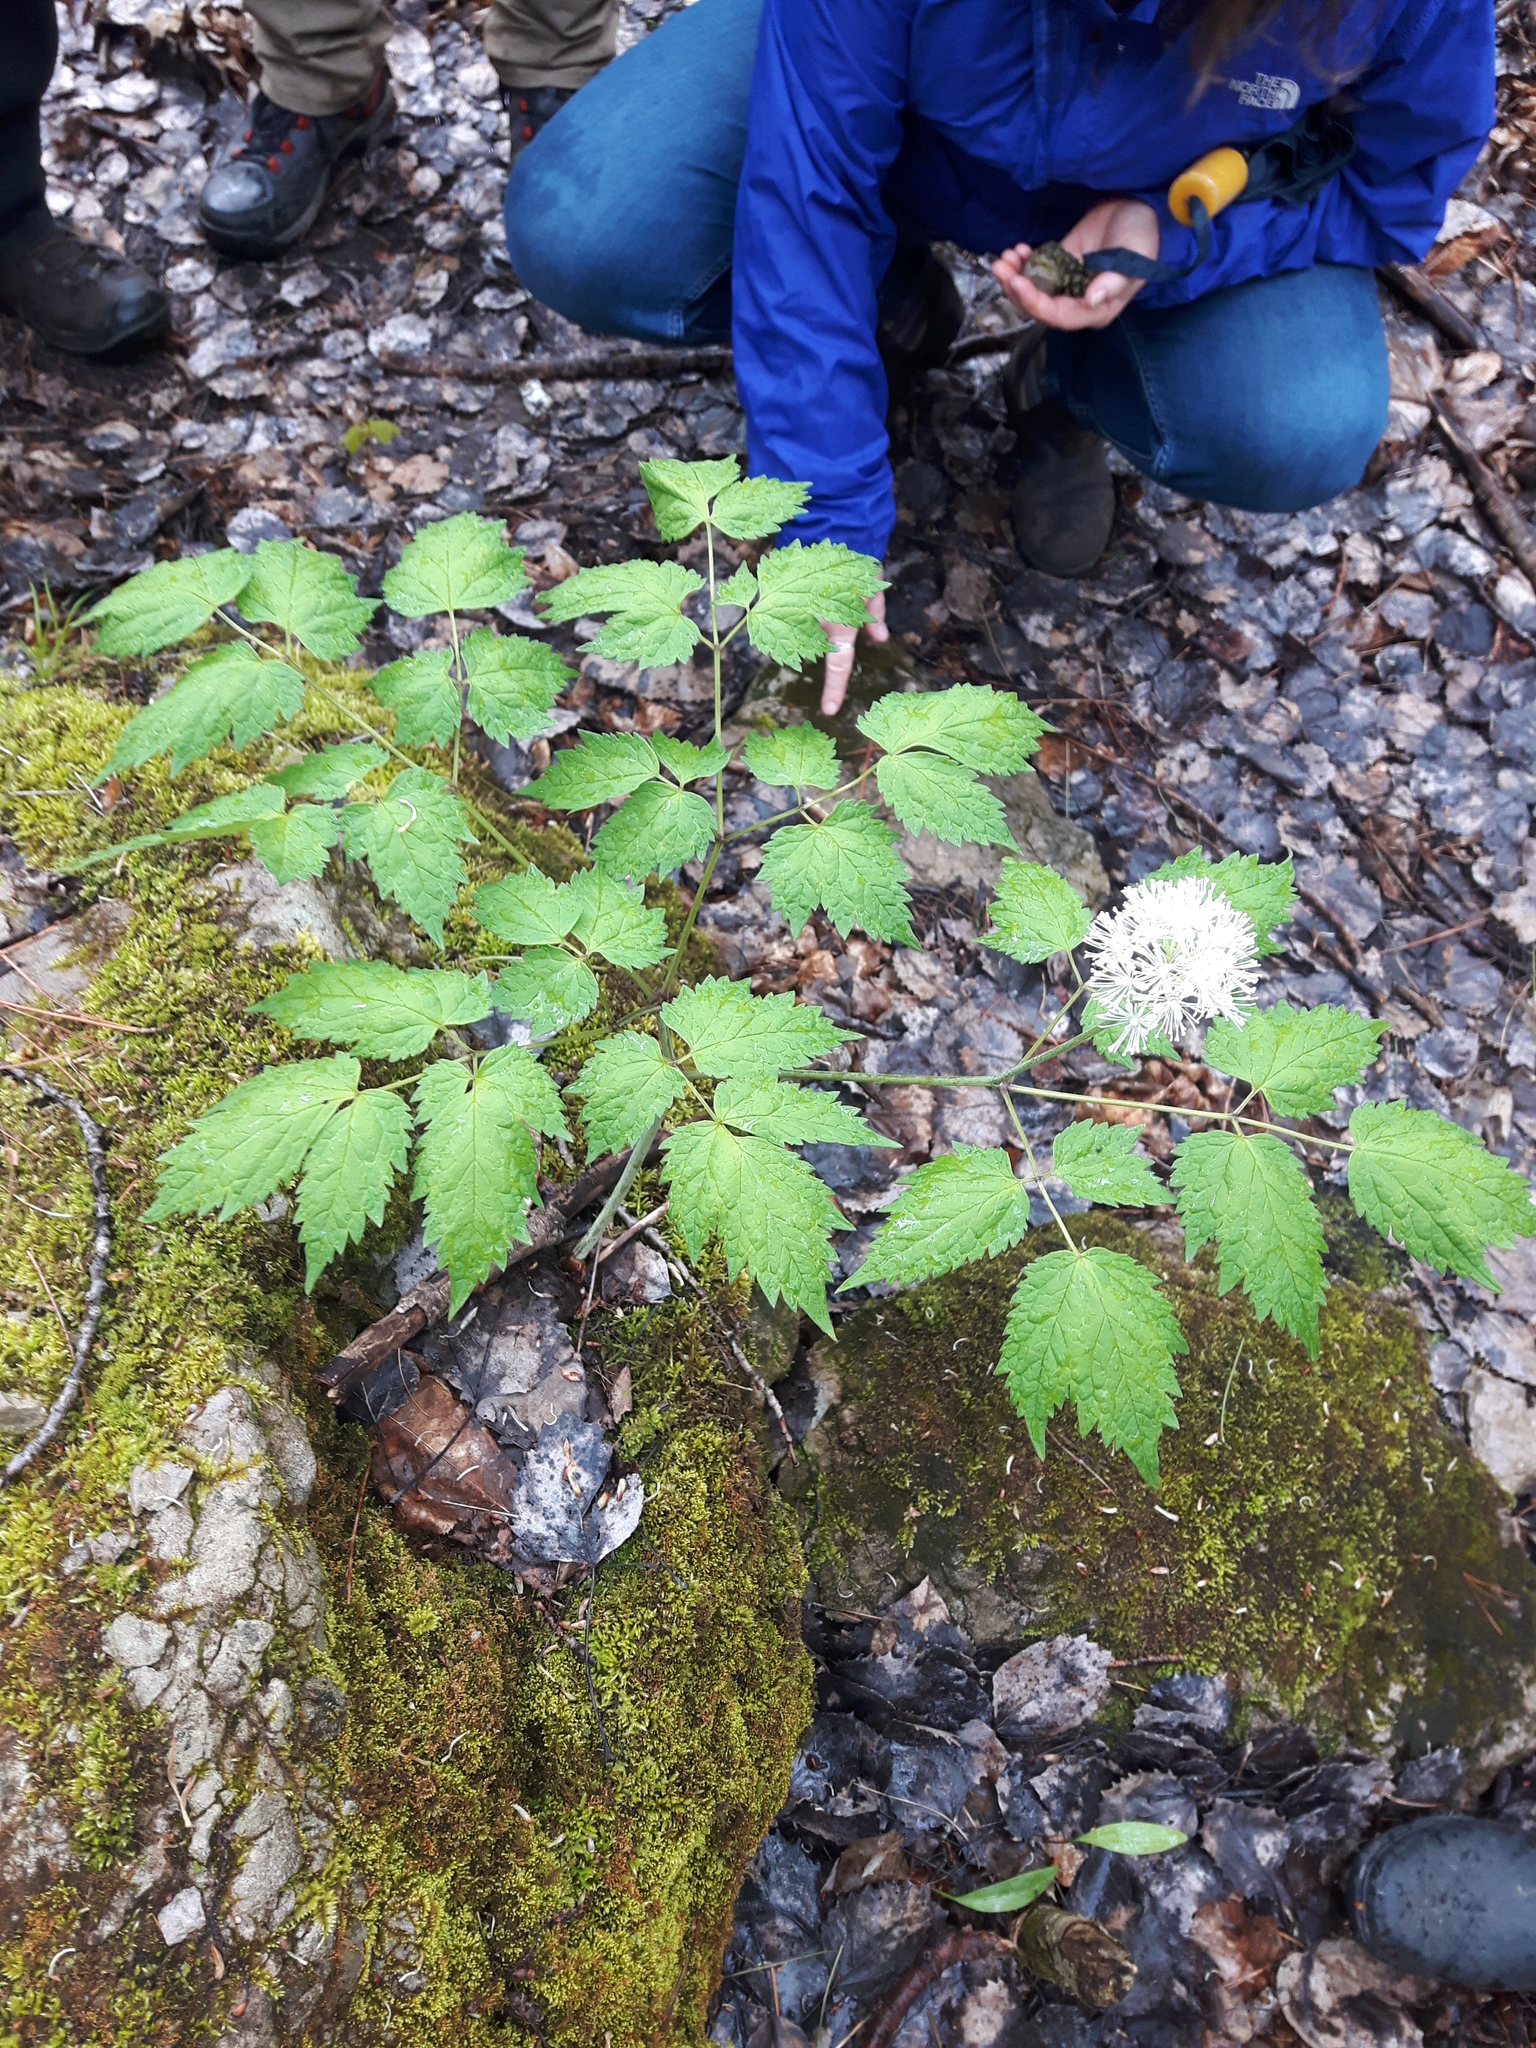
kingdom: Plantae
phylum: Tracheophyta
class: Magnoliopsida
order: Ranunculales
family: Ranunculaceae
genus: Actaea
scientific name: Actaea rubra
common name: Red baneberry
